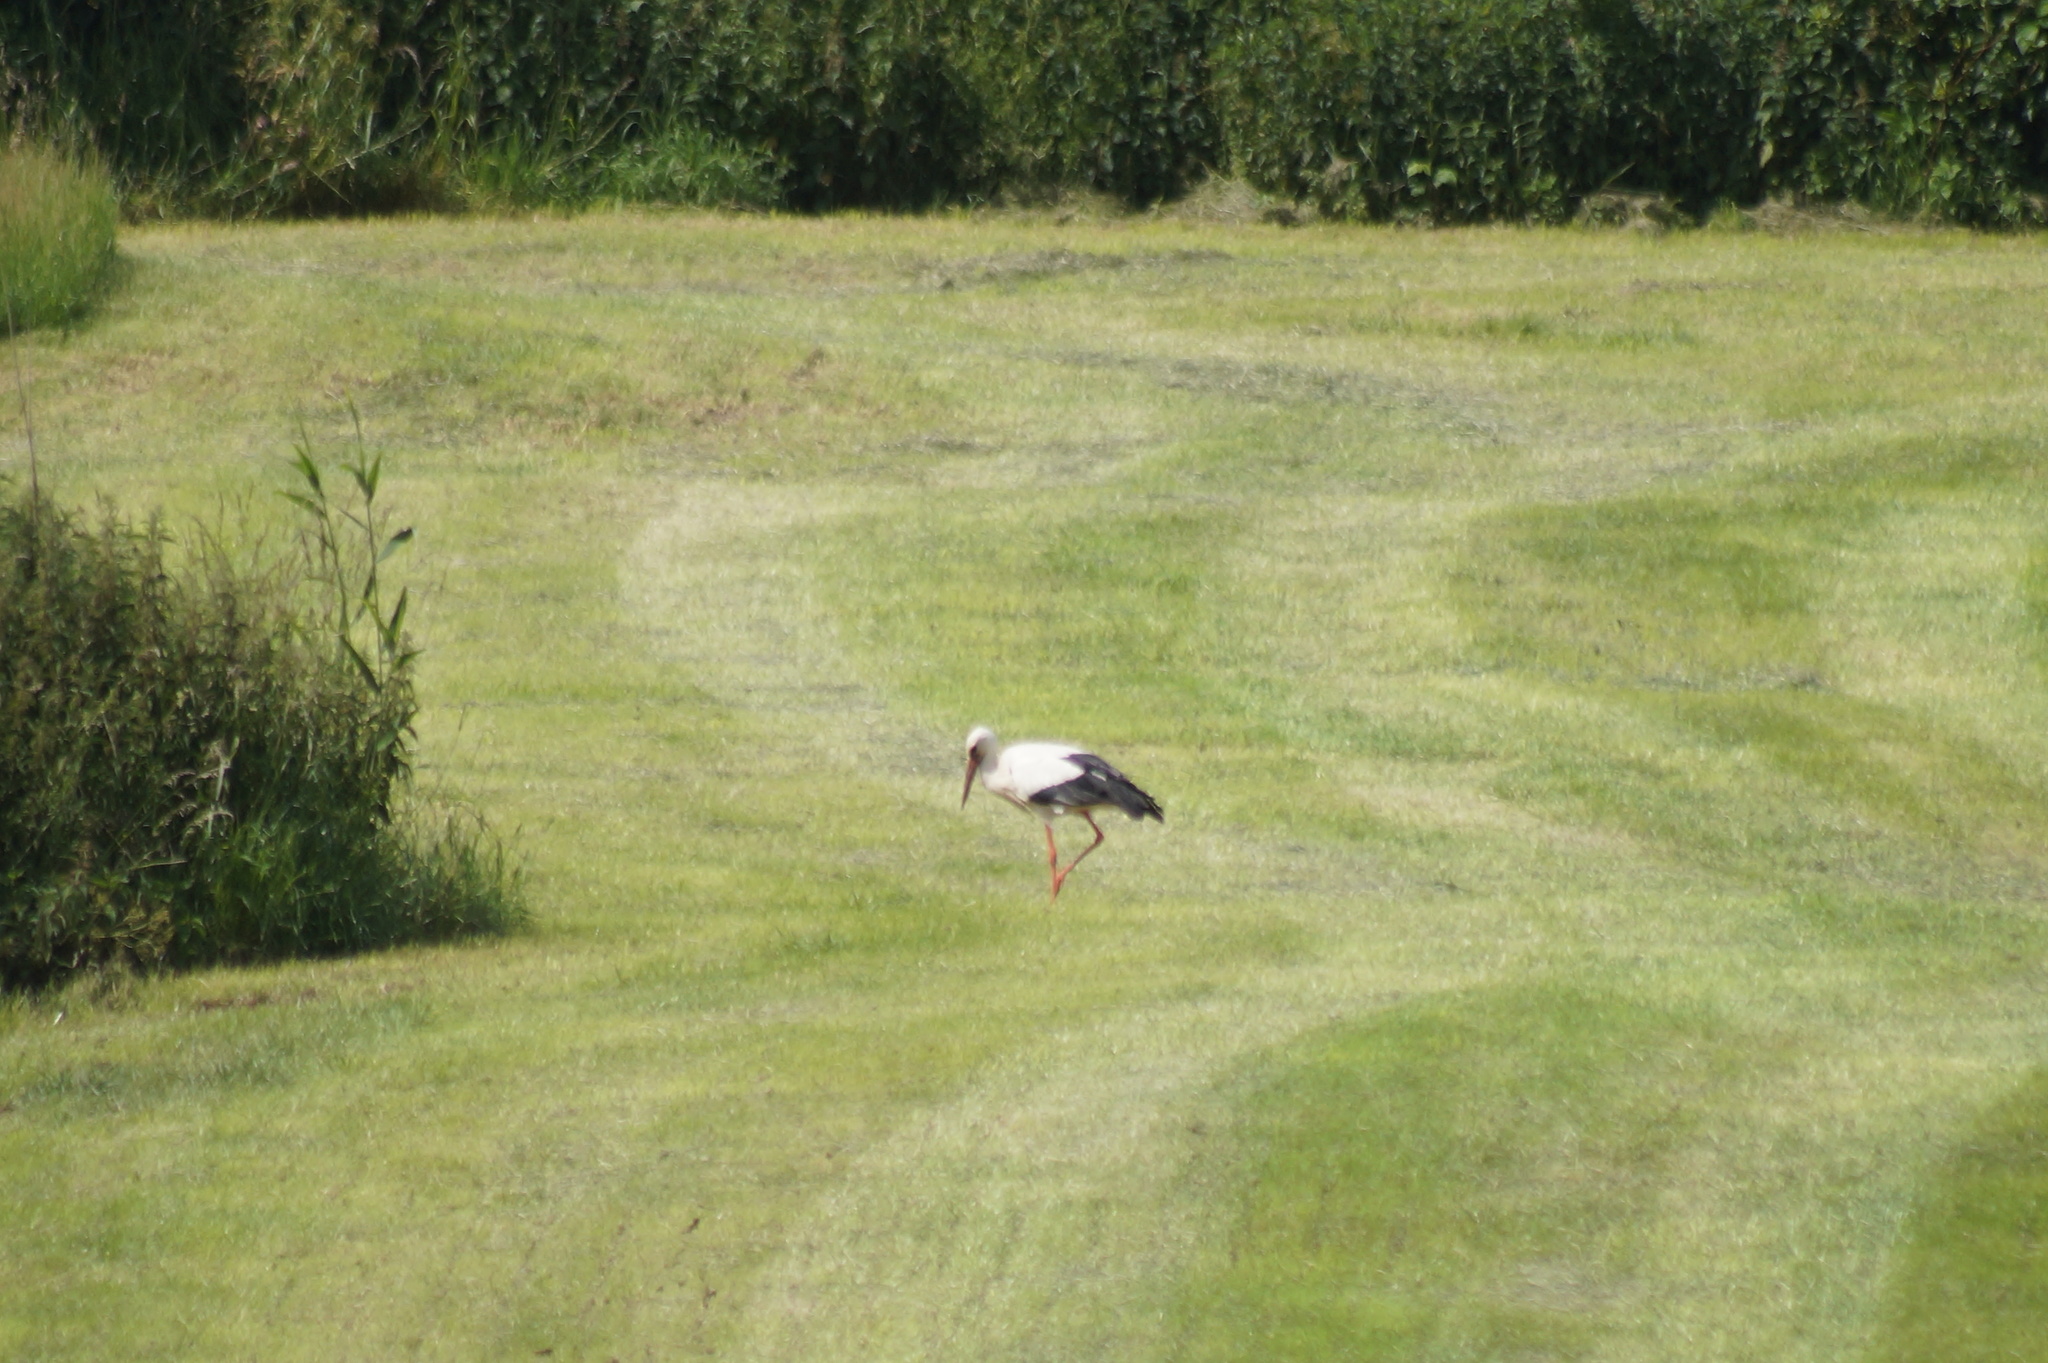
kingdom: Animalia
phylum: Chordata
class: Aves
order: Ciconiiformes
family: Ciconiidae
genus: Ciconia
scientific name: Ciconia ciconia
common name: White stork
